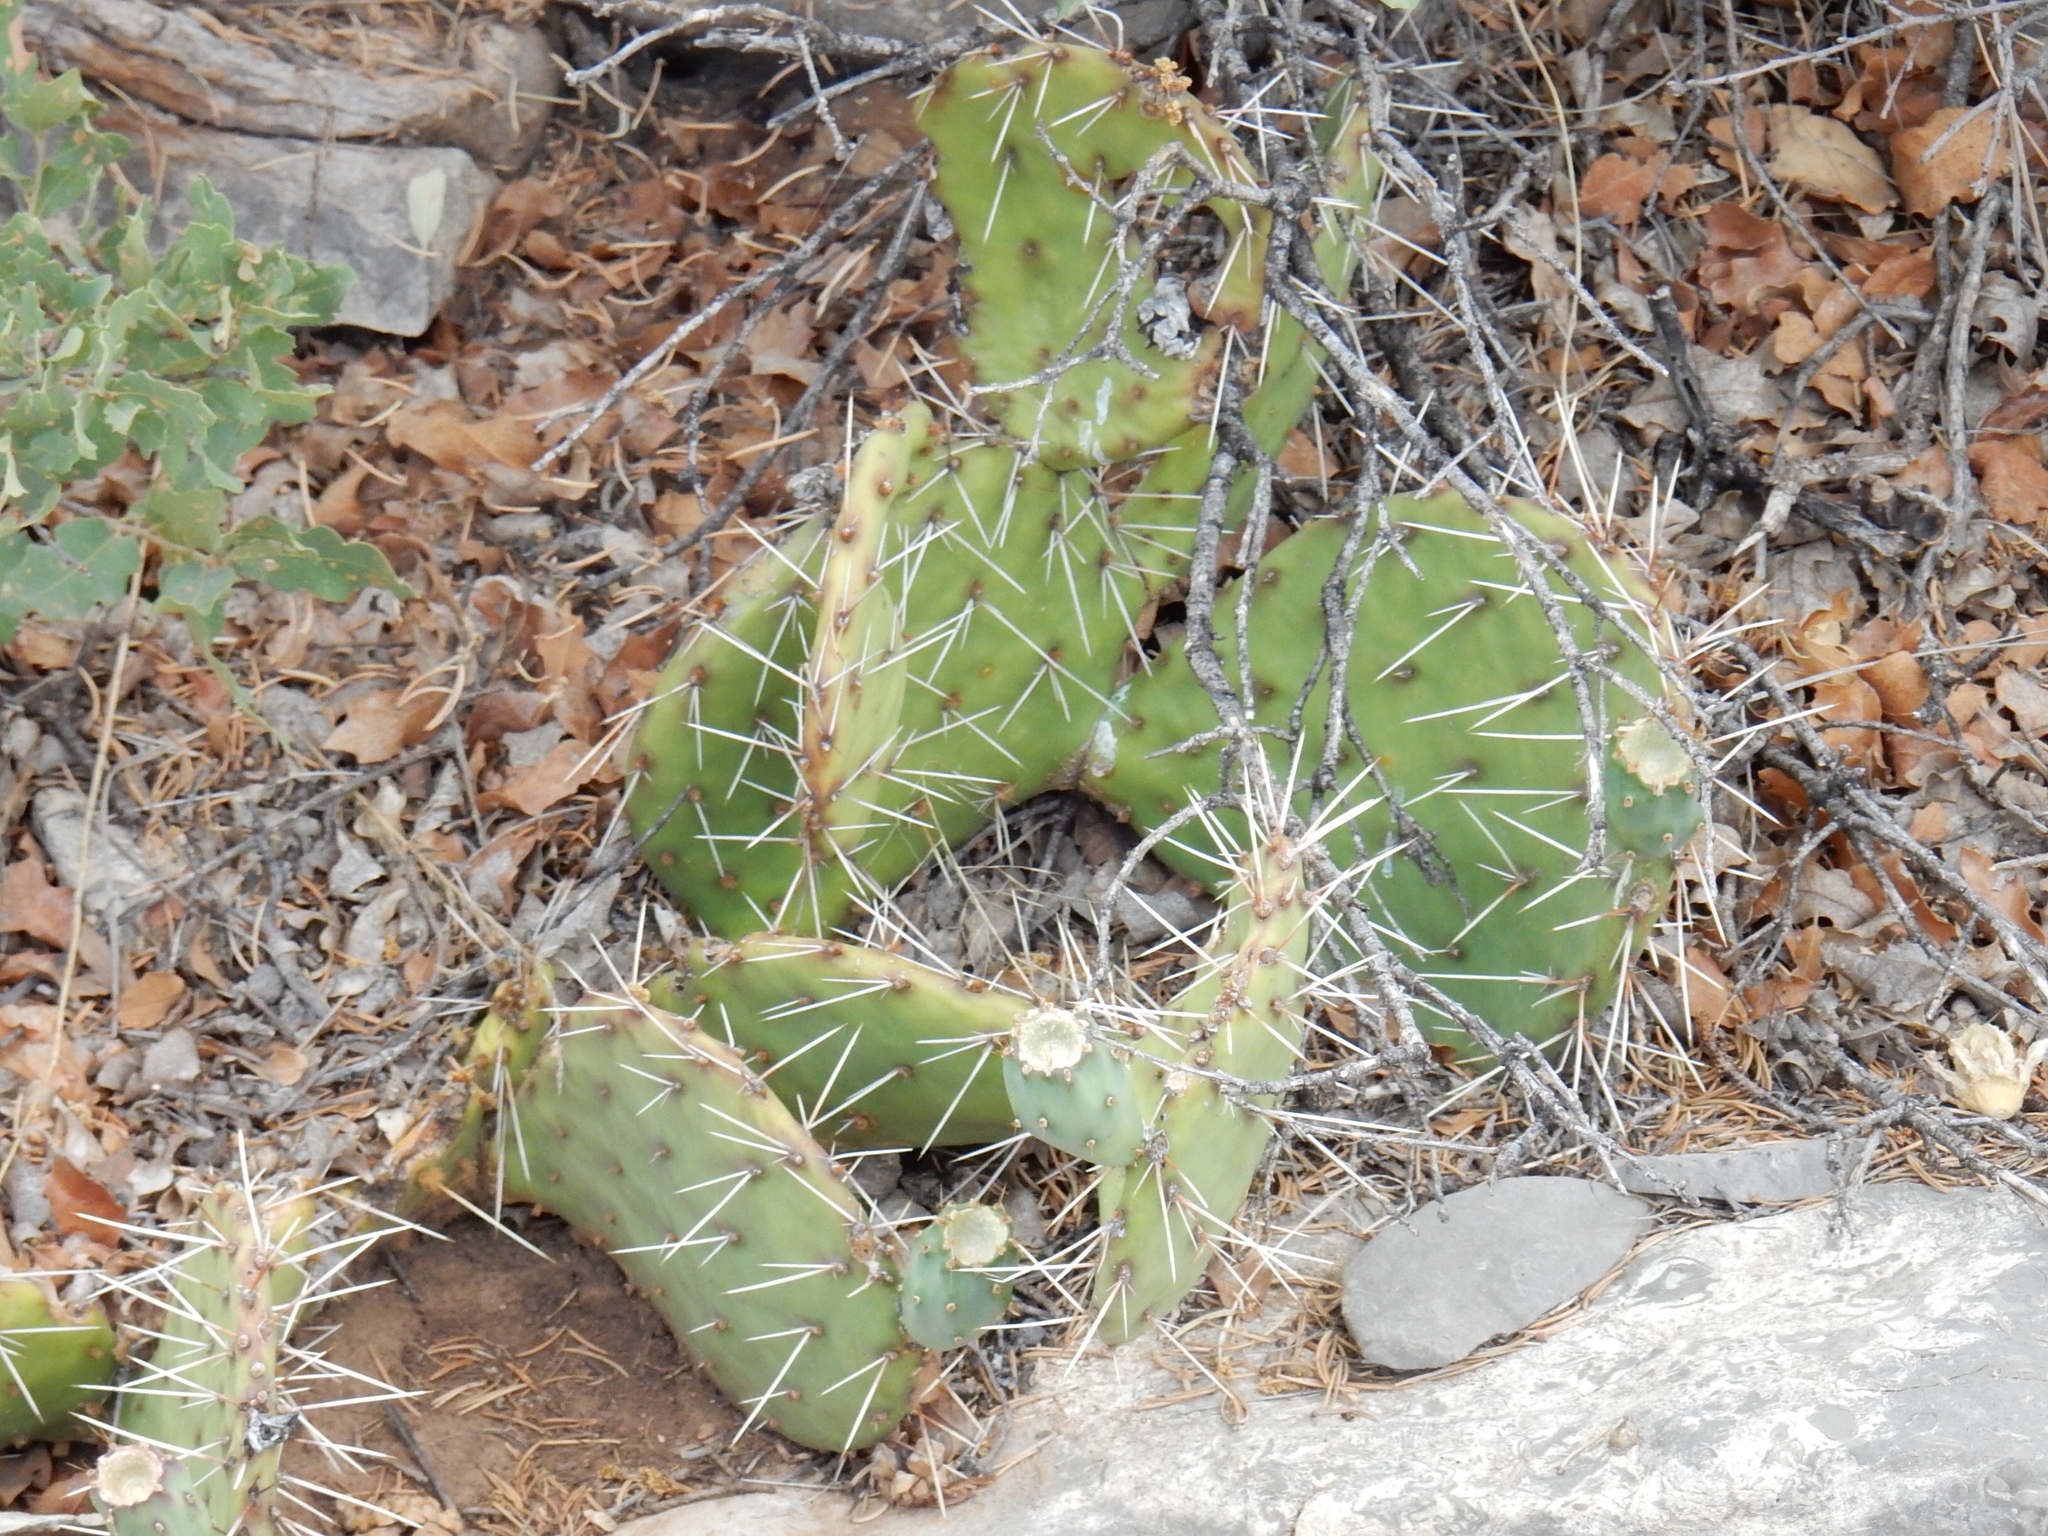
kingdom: Plantae
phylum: Tracheophyta
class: Magnoliopsida
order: Caryophyllales
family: Cactaceae
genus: Opuntia
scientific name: Opuntia phaeacantha
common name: New mexico prickly-pear
